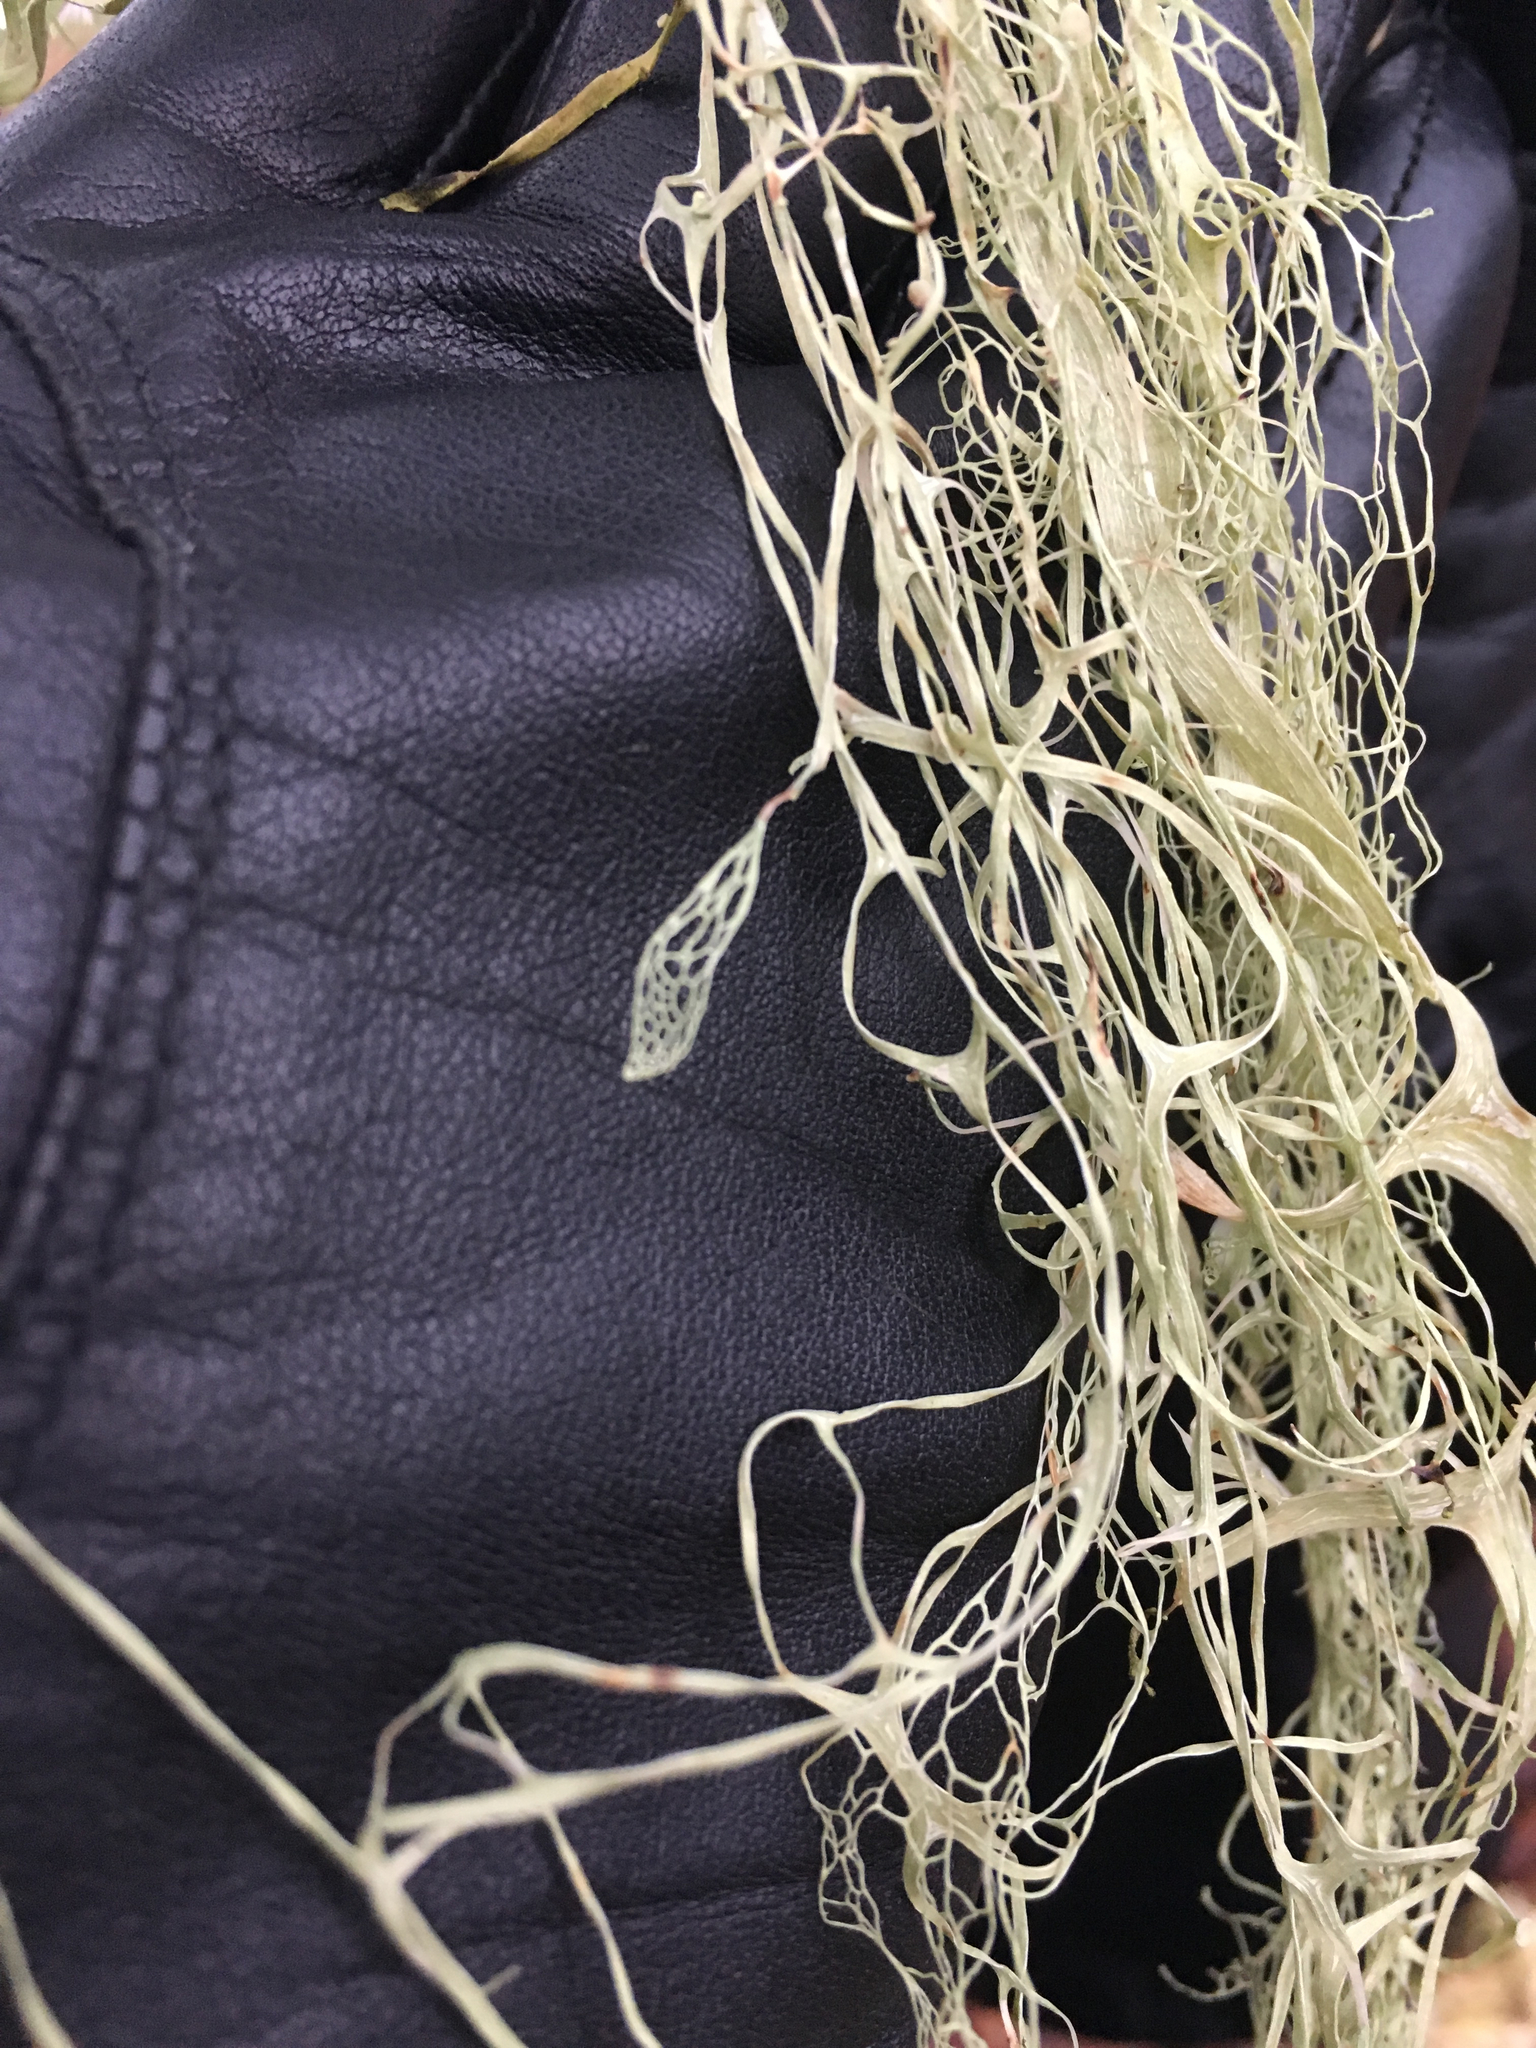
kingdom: Fungi
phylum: Ascomycota
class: Lecanoromycetes
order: Lecanorales
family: Ramalinaceae
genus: Ramalina
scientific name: Ramalina menziesii
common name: Lace lichen
